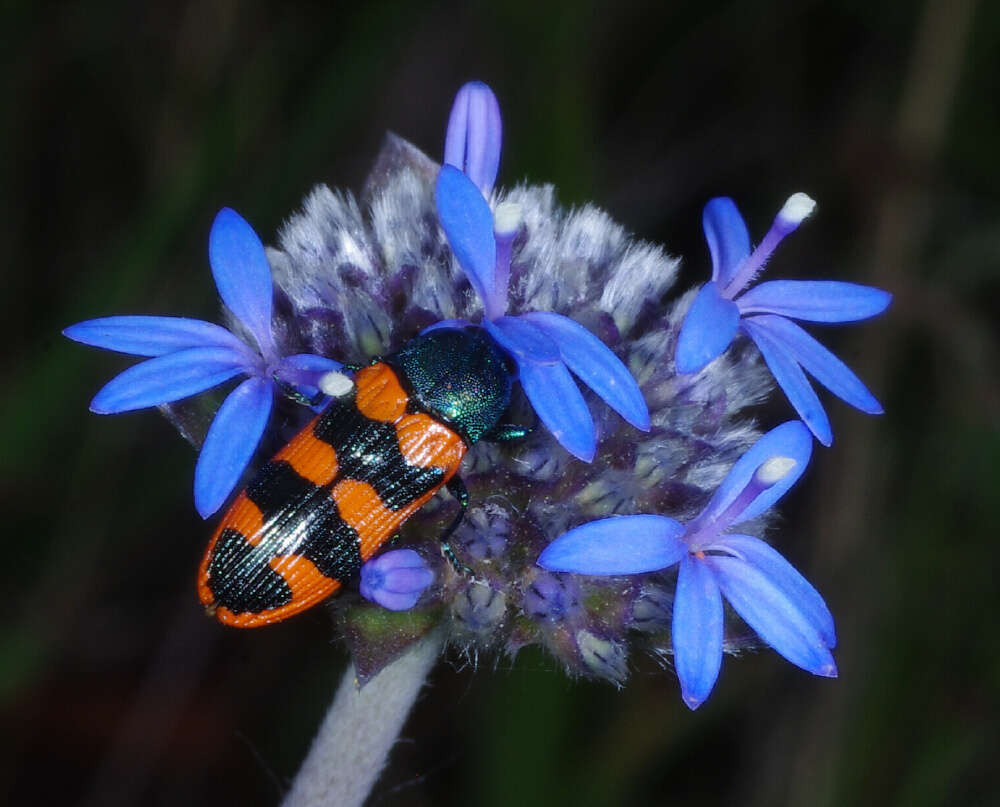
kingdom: Plantae
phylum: Tracheophyta
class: Magnoliopsida
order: Asterales
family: Goodeniaceae
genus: Brunonia
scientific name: Brunonia australis
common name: Blue pincushion
